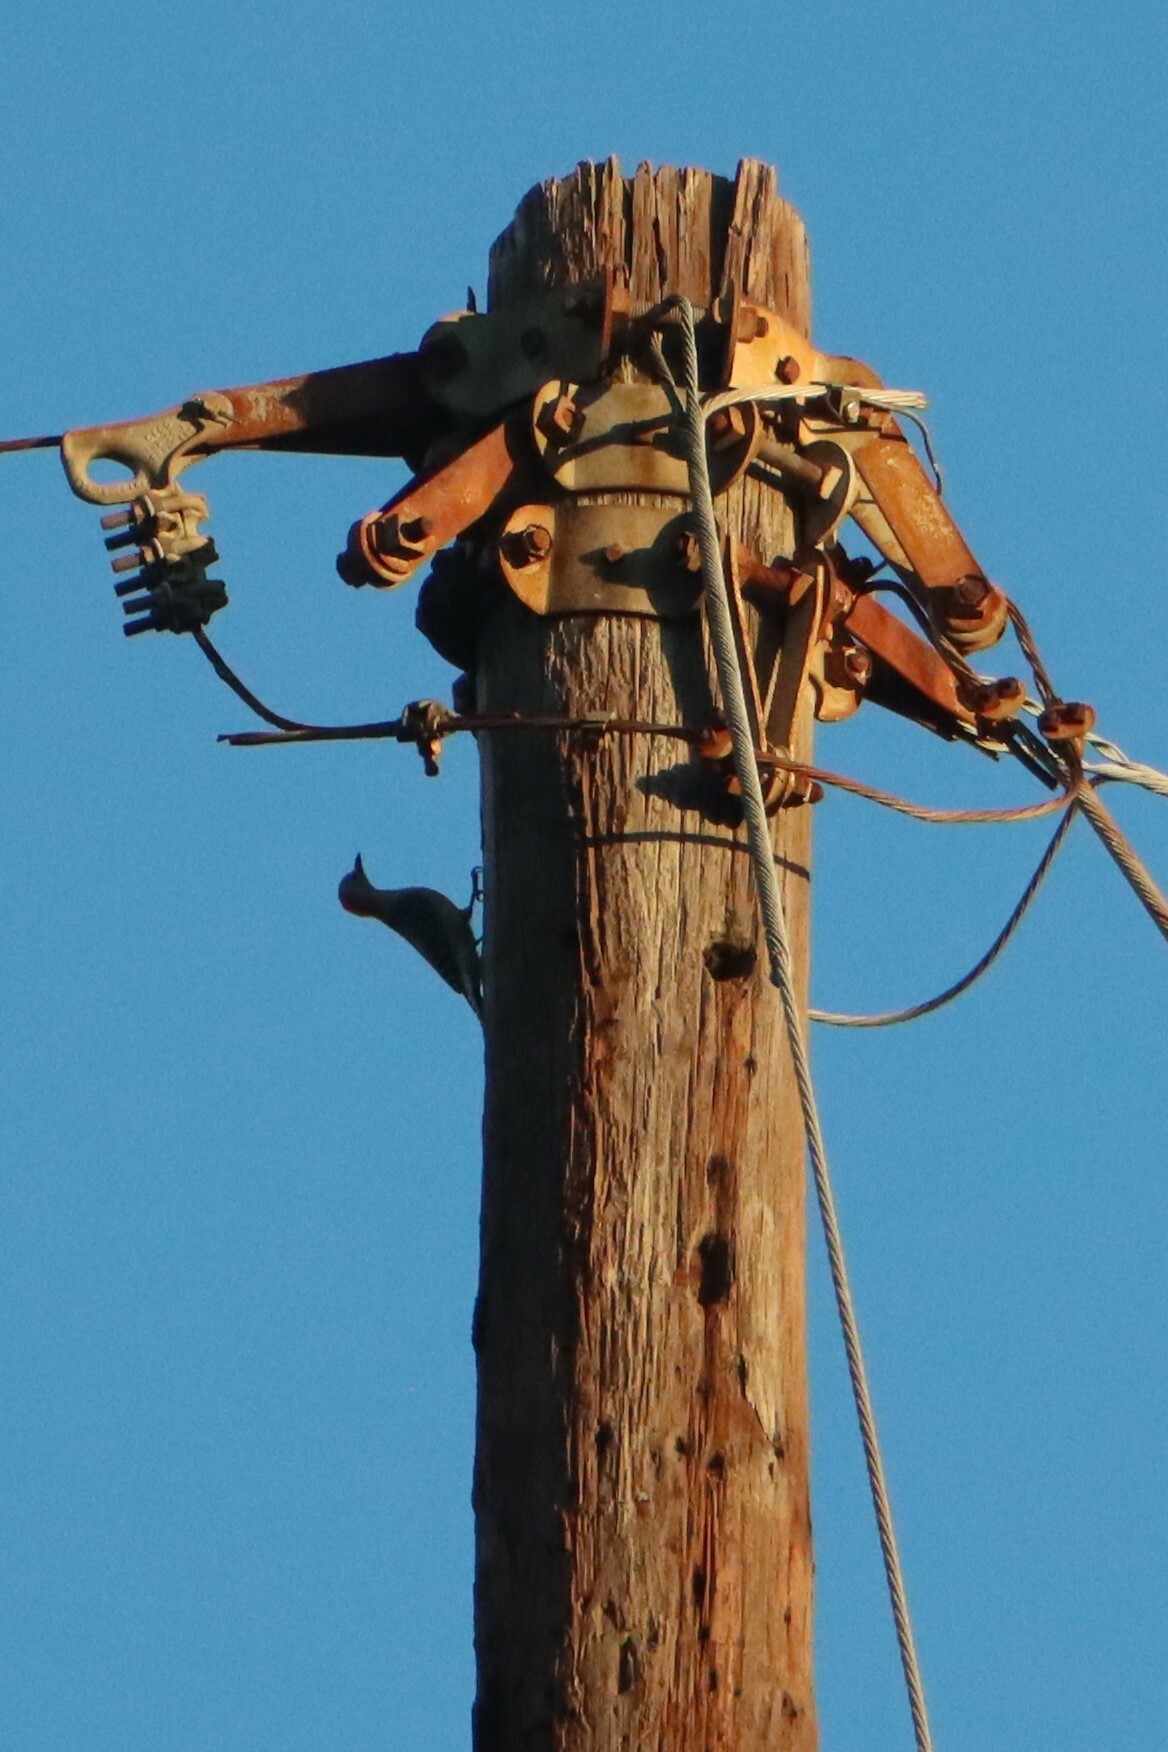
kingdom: Animalia
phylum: Chordata
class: Aves
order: Piciformes
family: Picidae
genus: Melanerpes
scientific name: Melanerpes carolinus
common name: Red-bellied woodpecker
